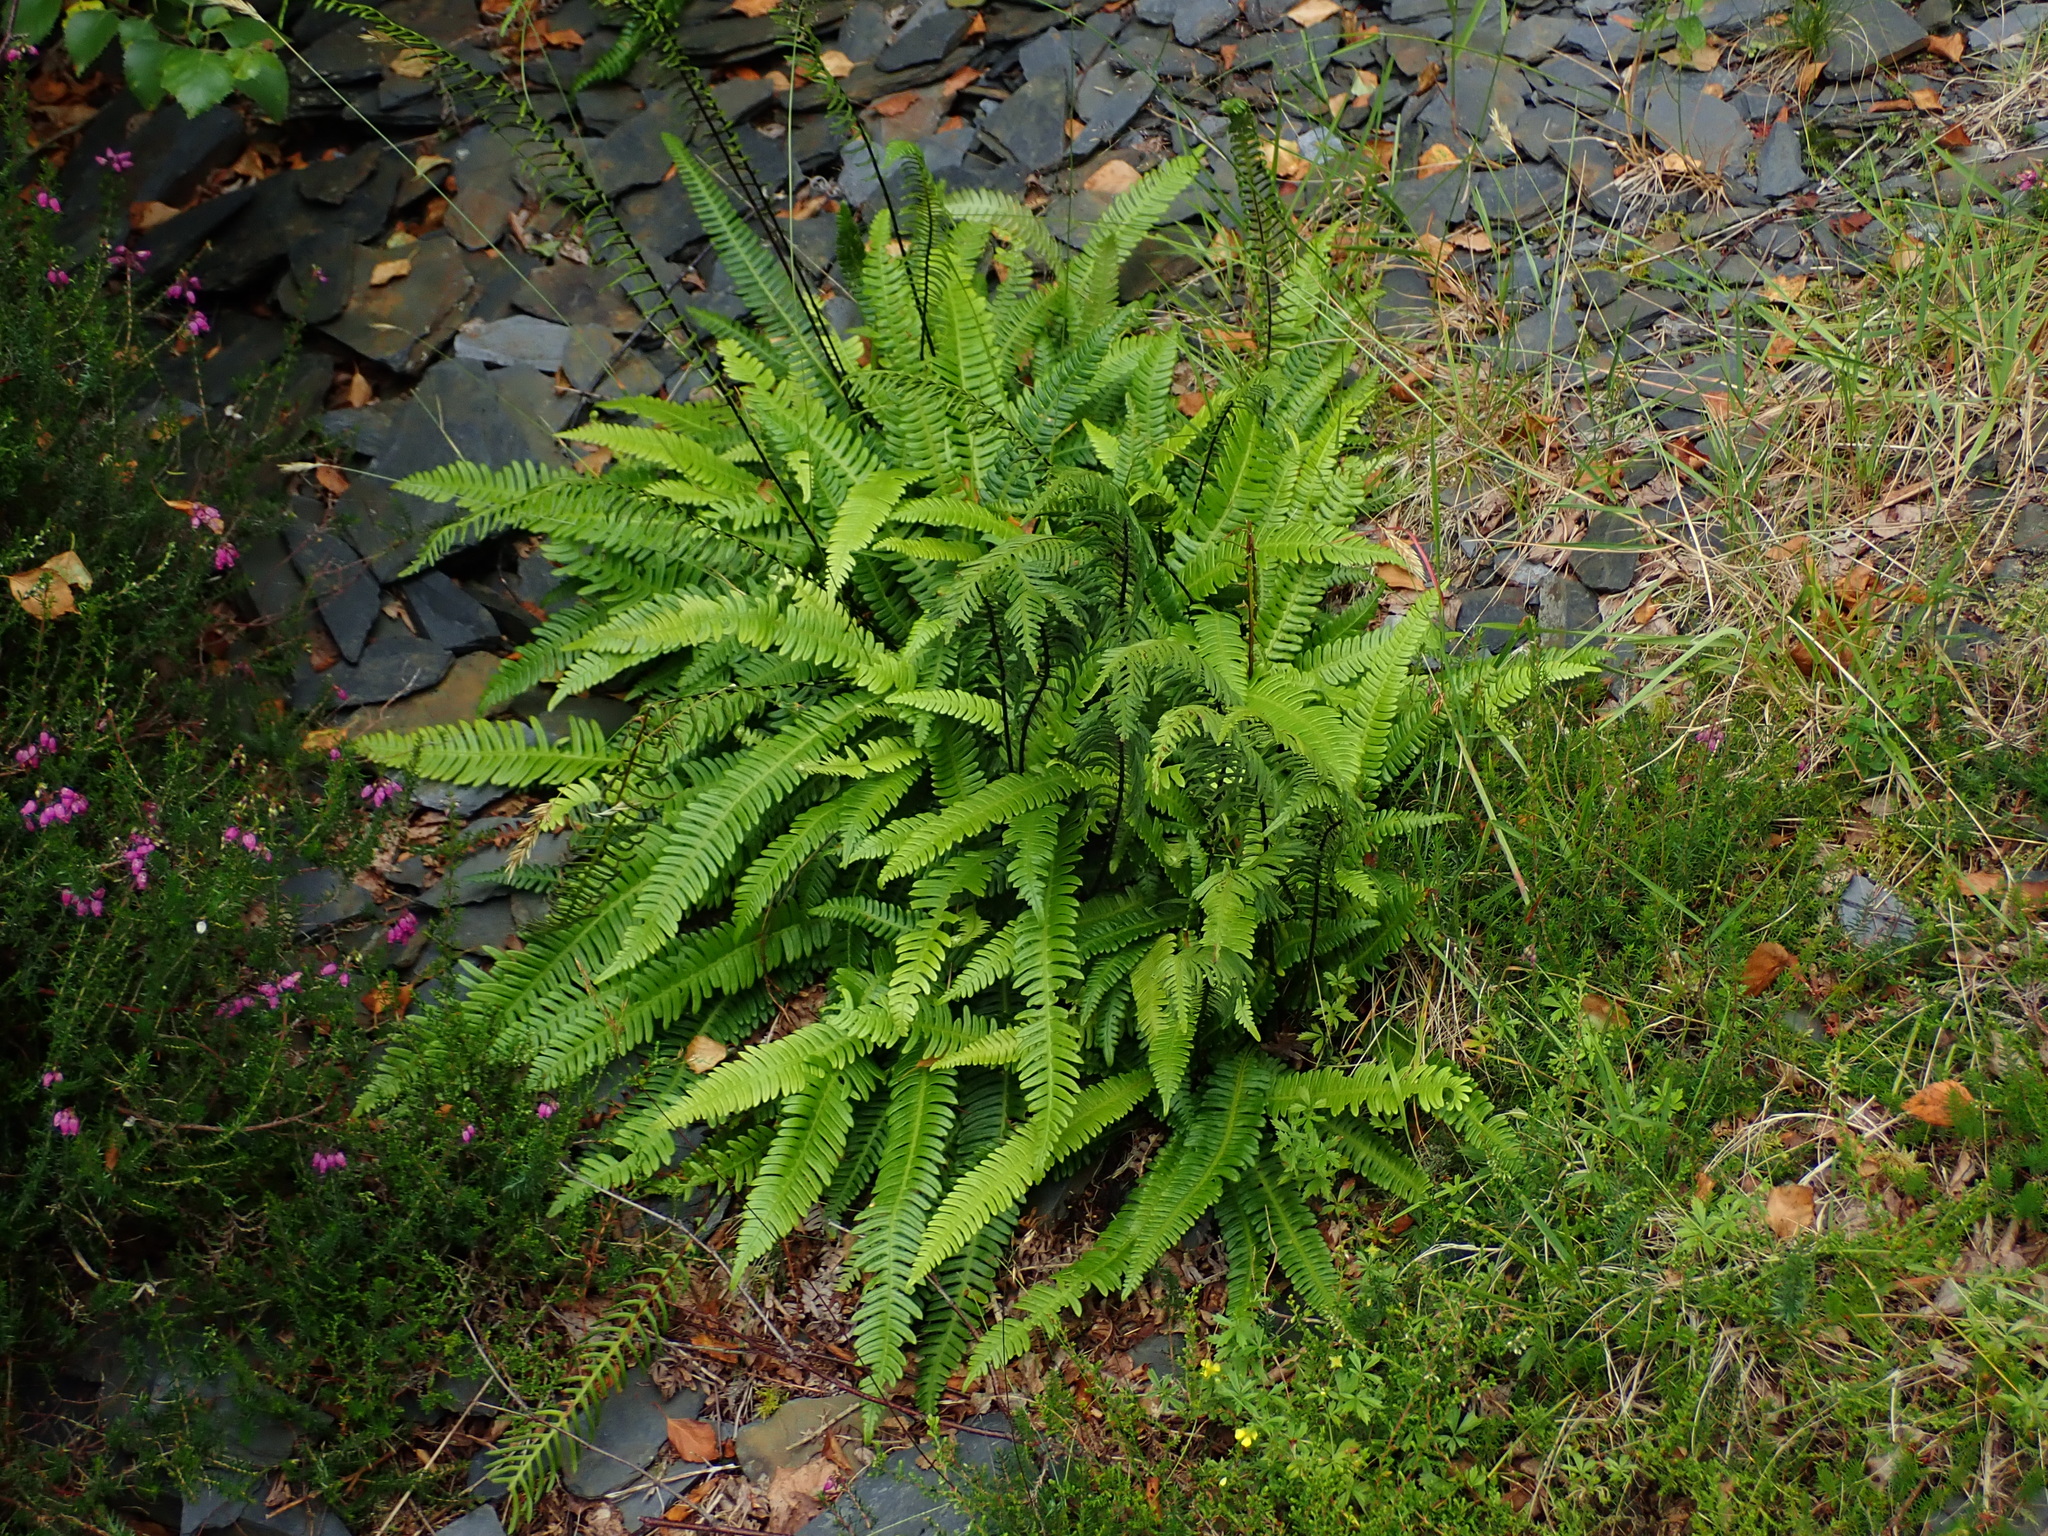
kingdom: Plantae
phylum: Tracheophyta
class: Polypodiopsida
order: Polypodiales
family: Blechnaceae
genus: Struthiopteris
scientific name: Struthiopteris spicant
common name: Deer fern
